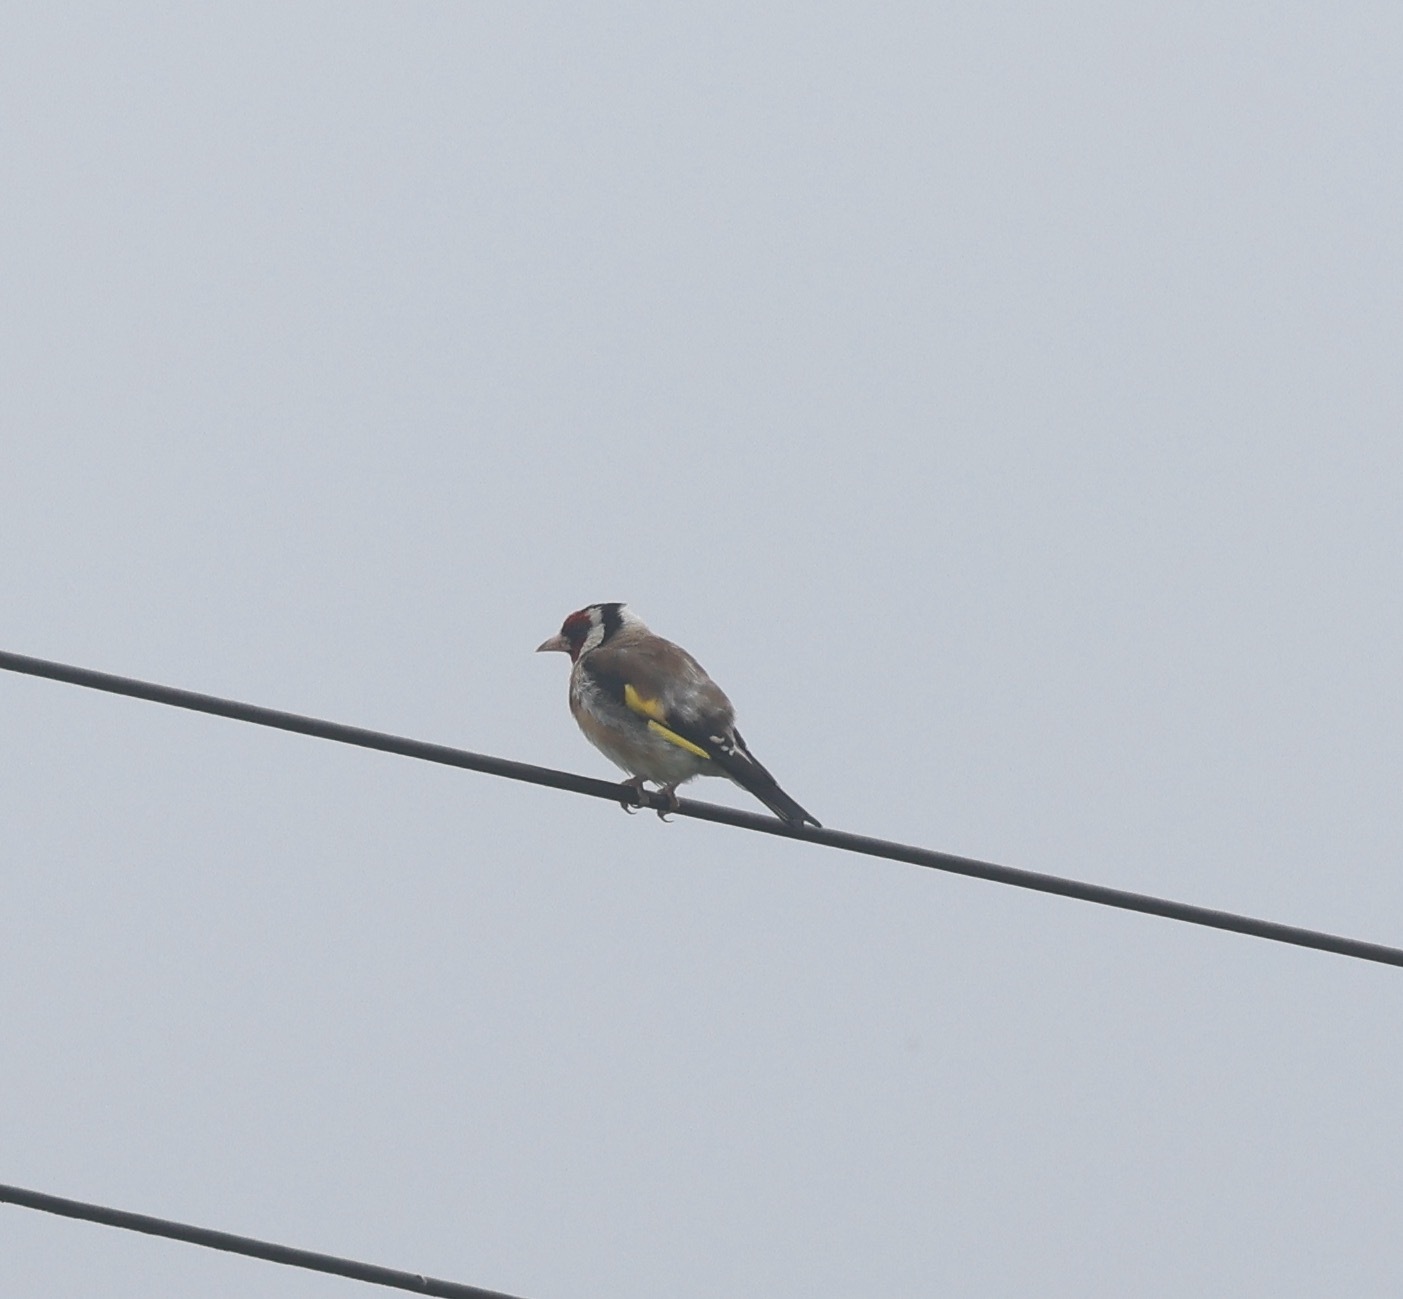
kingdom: Animalia
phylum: Chordata
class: Aves
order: Passeriformes
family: Fringillidae
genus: Carduelis
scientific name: Carduelis carduelis
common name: European goldfinch
